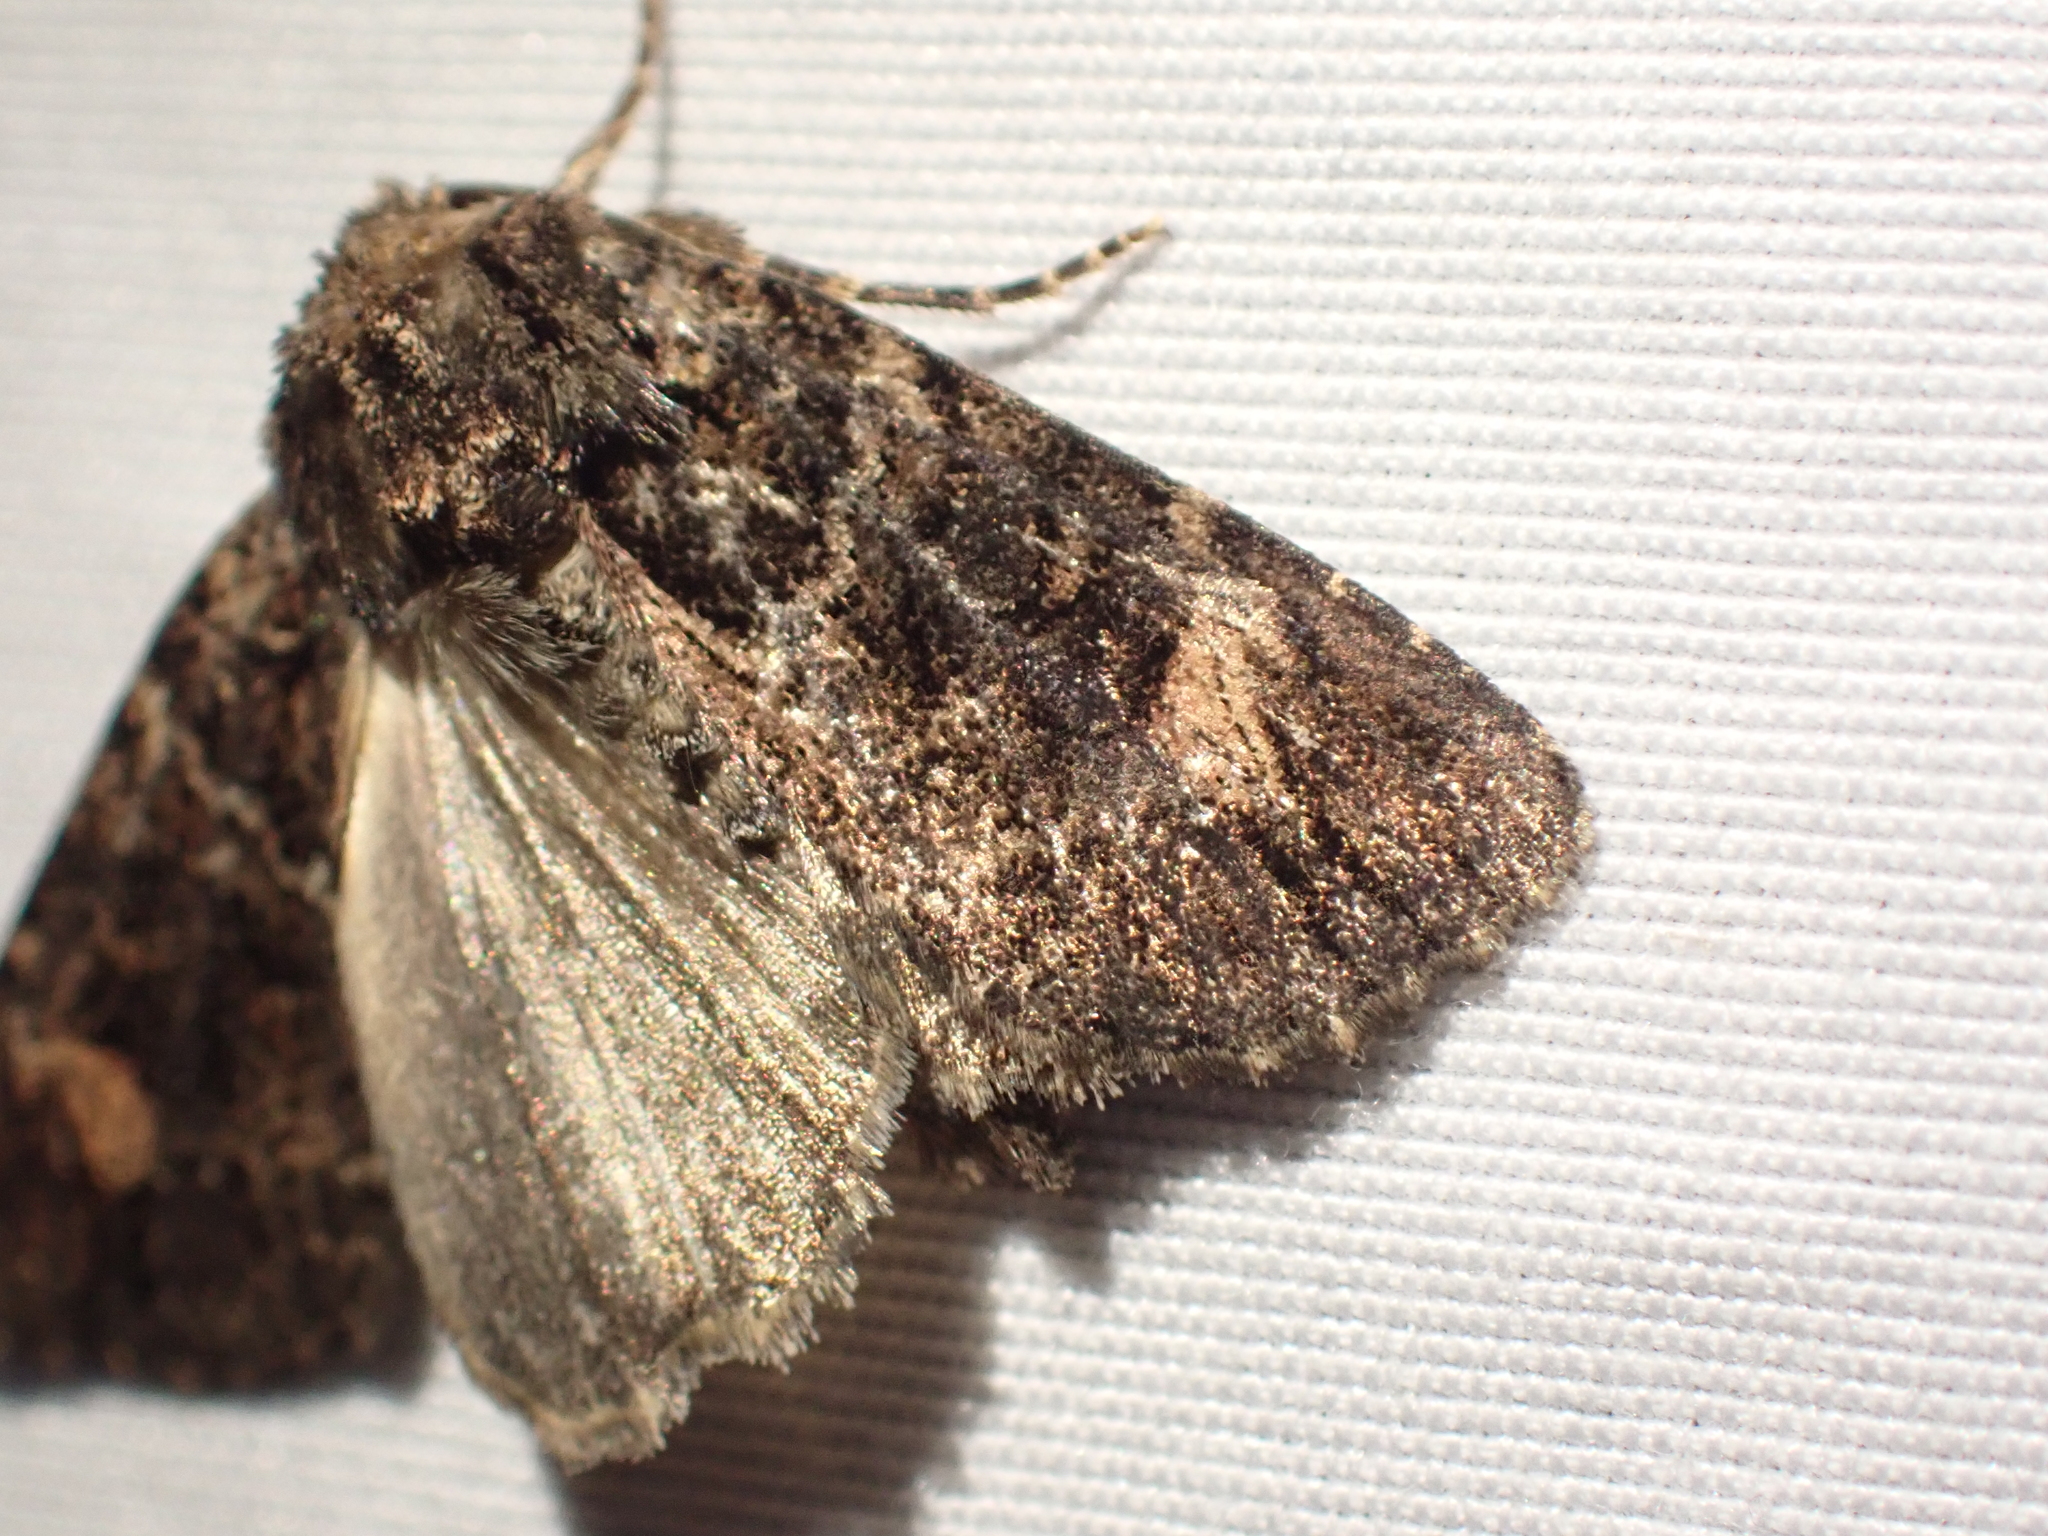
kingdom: Animalia
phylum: Arthropoda
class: Insecta
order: Lepidoptera
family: Noctuidae
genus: Aseptis
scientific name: Aseptis binotata
